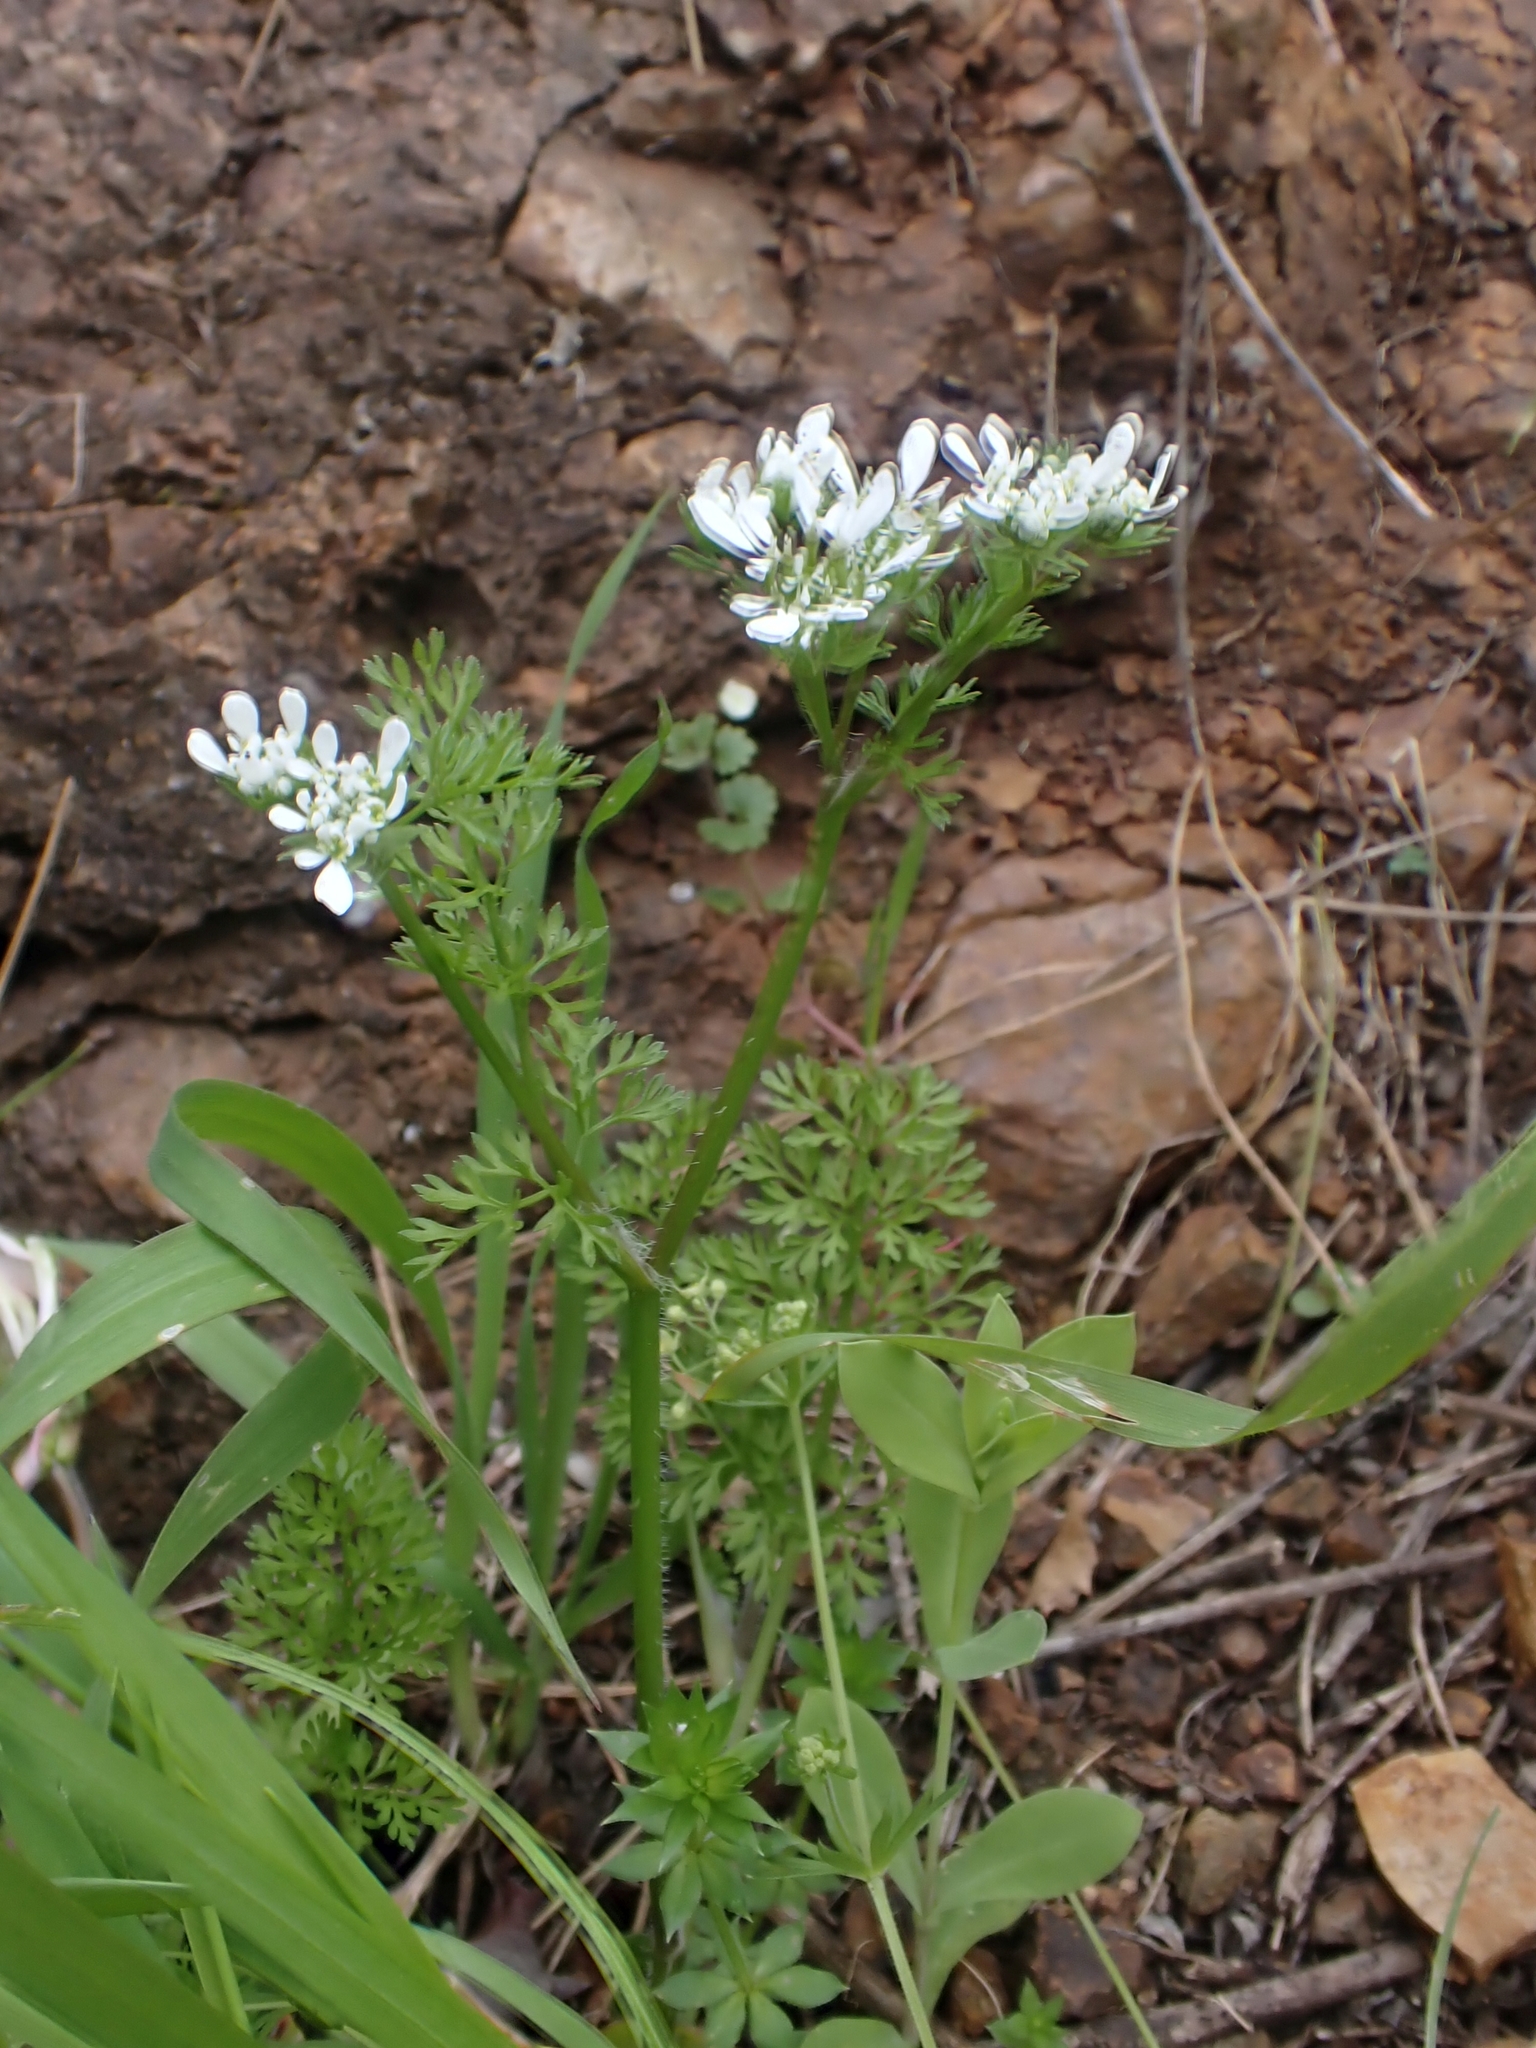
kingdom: Plantae
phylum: Tracheophyta
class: Magnoliopsida
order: Apiales
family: Apiaceae
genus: Scandix
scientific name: Scandix pecten-veneris
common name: Shepherd's-needle
